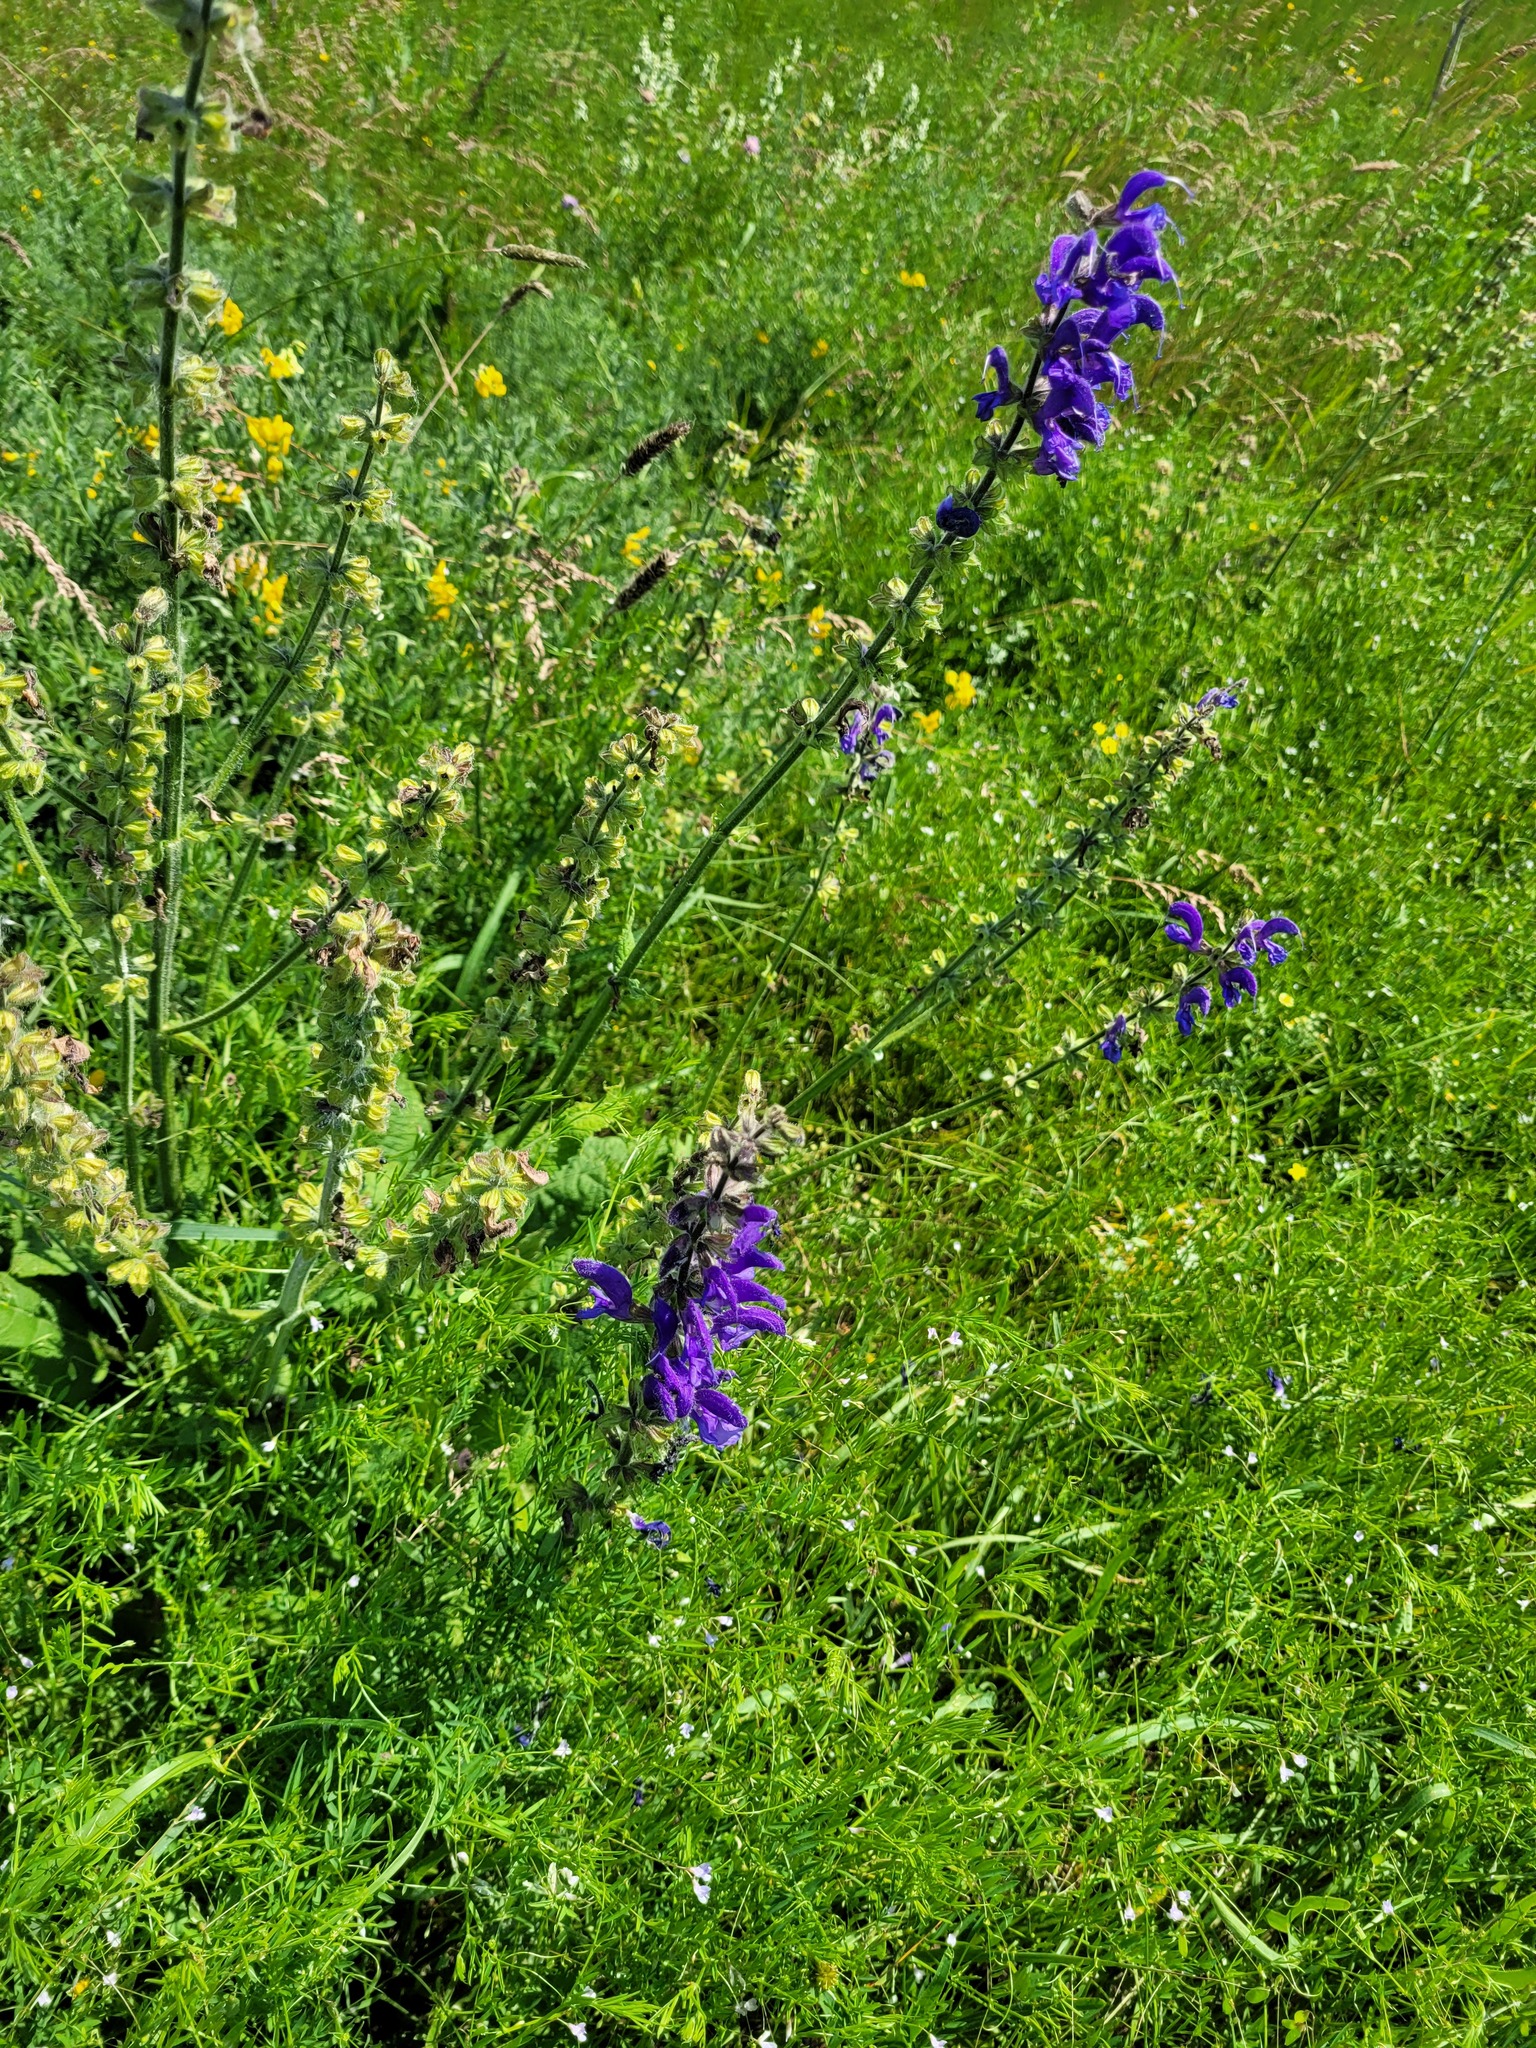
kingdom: Plantae
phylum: Tracheophyta
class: Magnoliopsida
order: Lamiales
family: Lamiaceae
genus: Salvia
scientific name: Salvia pratensis
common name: Meadow sage
